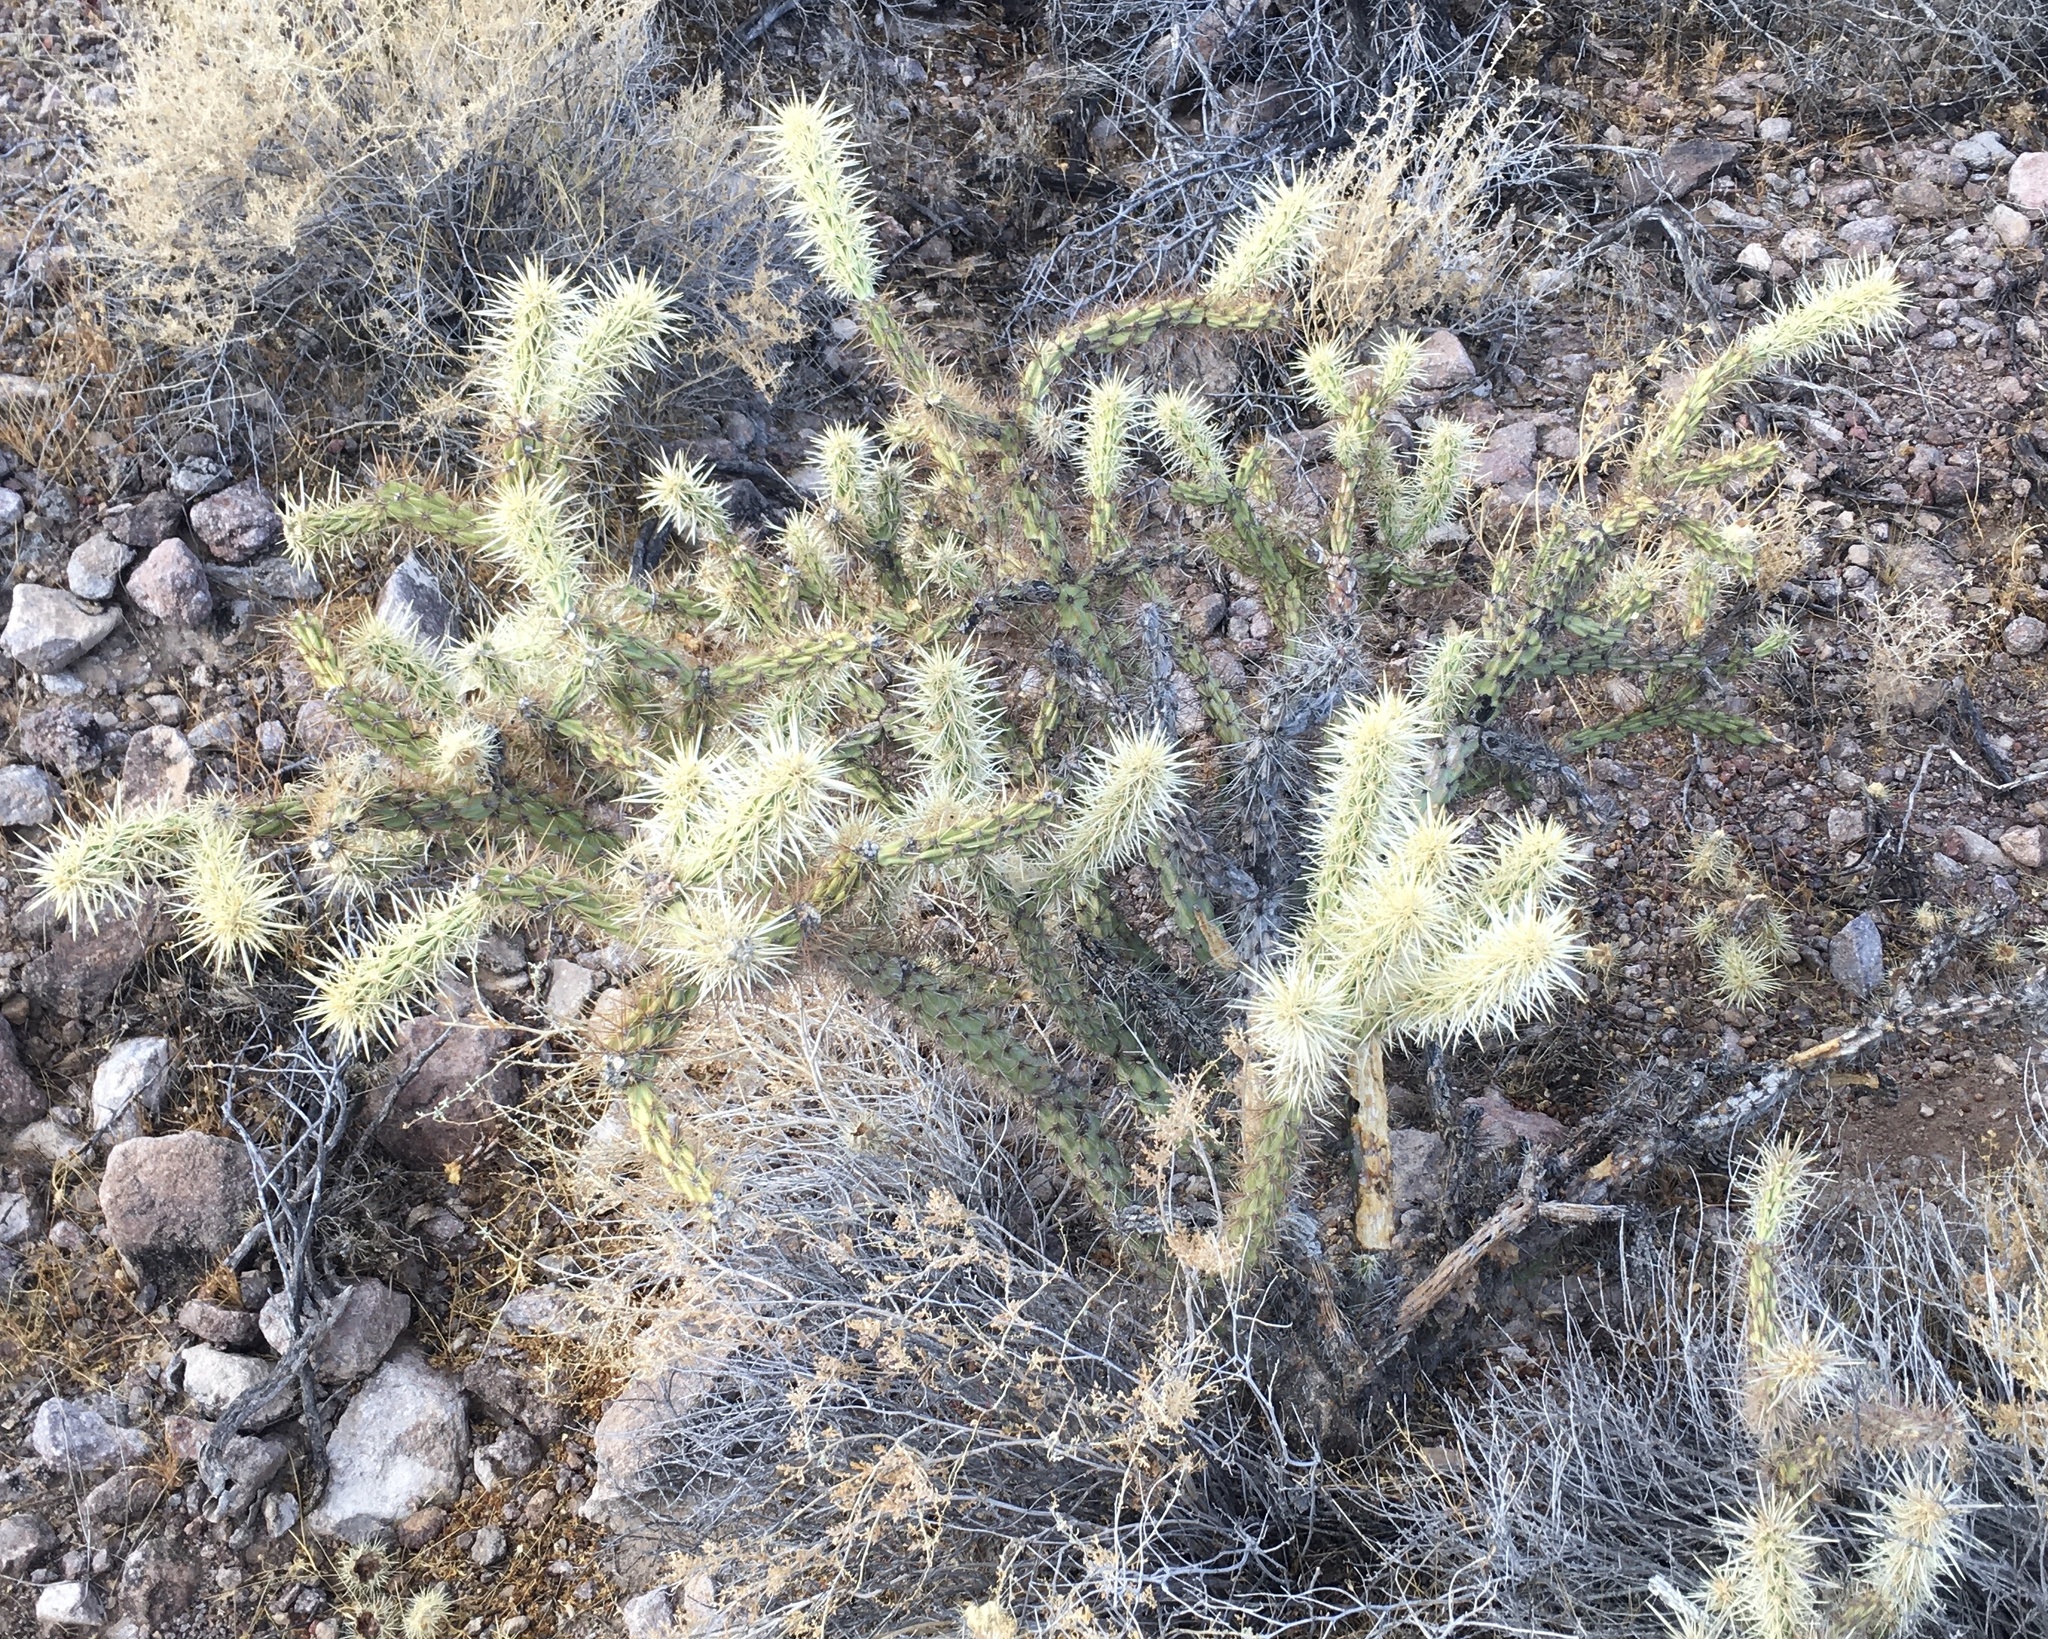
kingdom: Plantae
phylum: Tracheophyta
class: Magnoliopsida
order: Caryophyllales
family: Cactaceae
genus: Cylindropuntia
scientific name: Cylindropuntia acanthocarpa
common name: Buckhorn cholla
